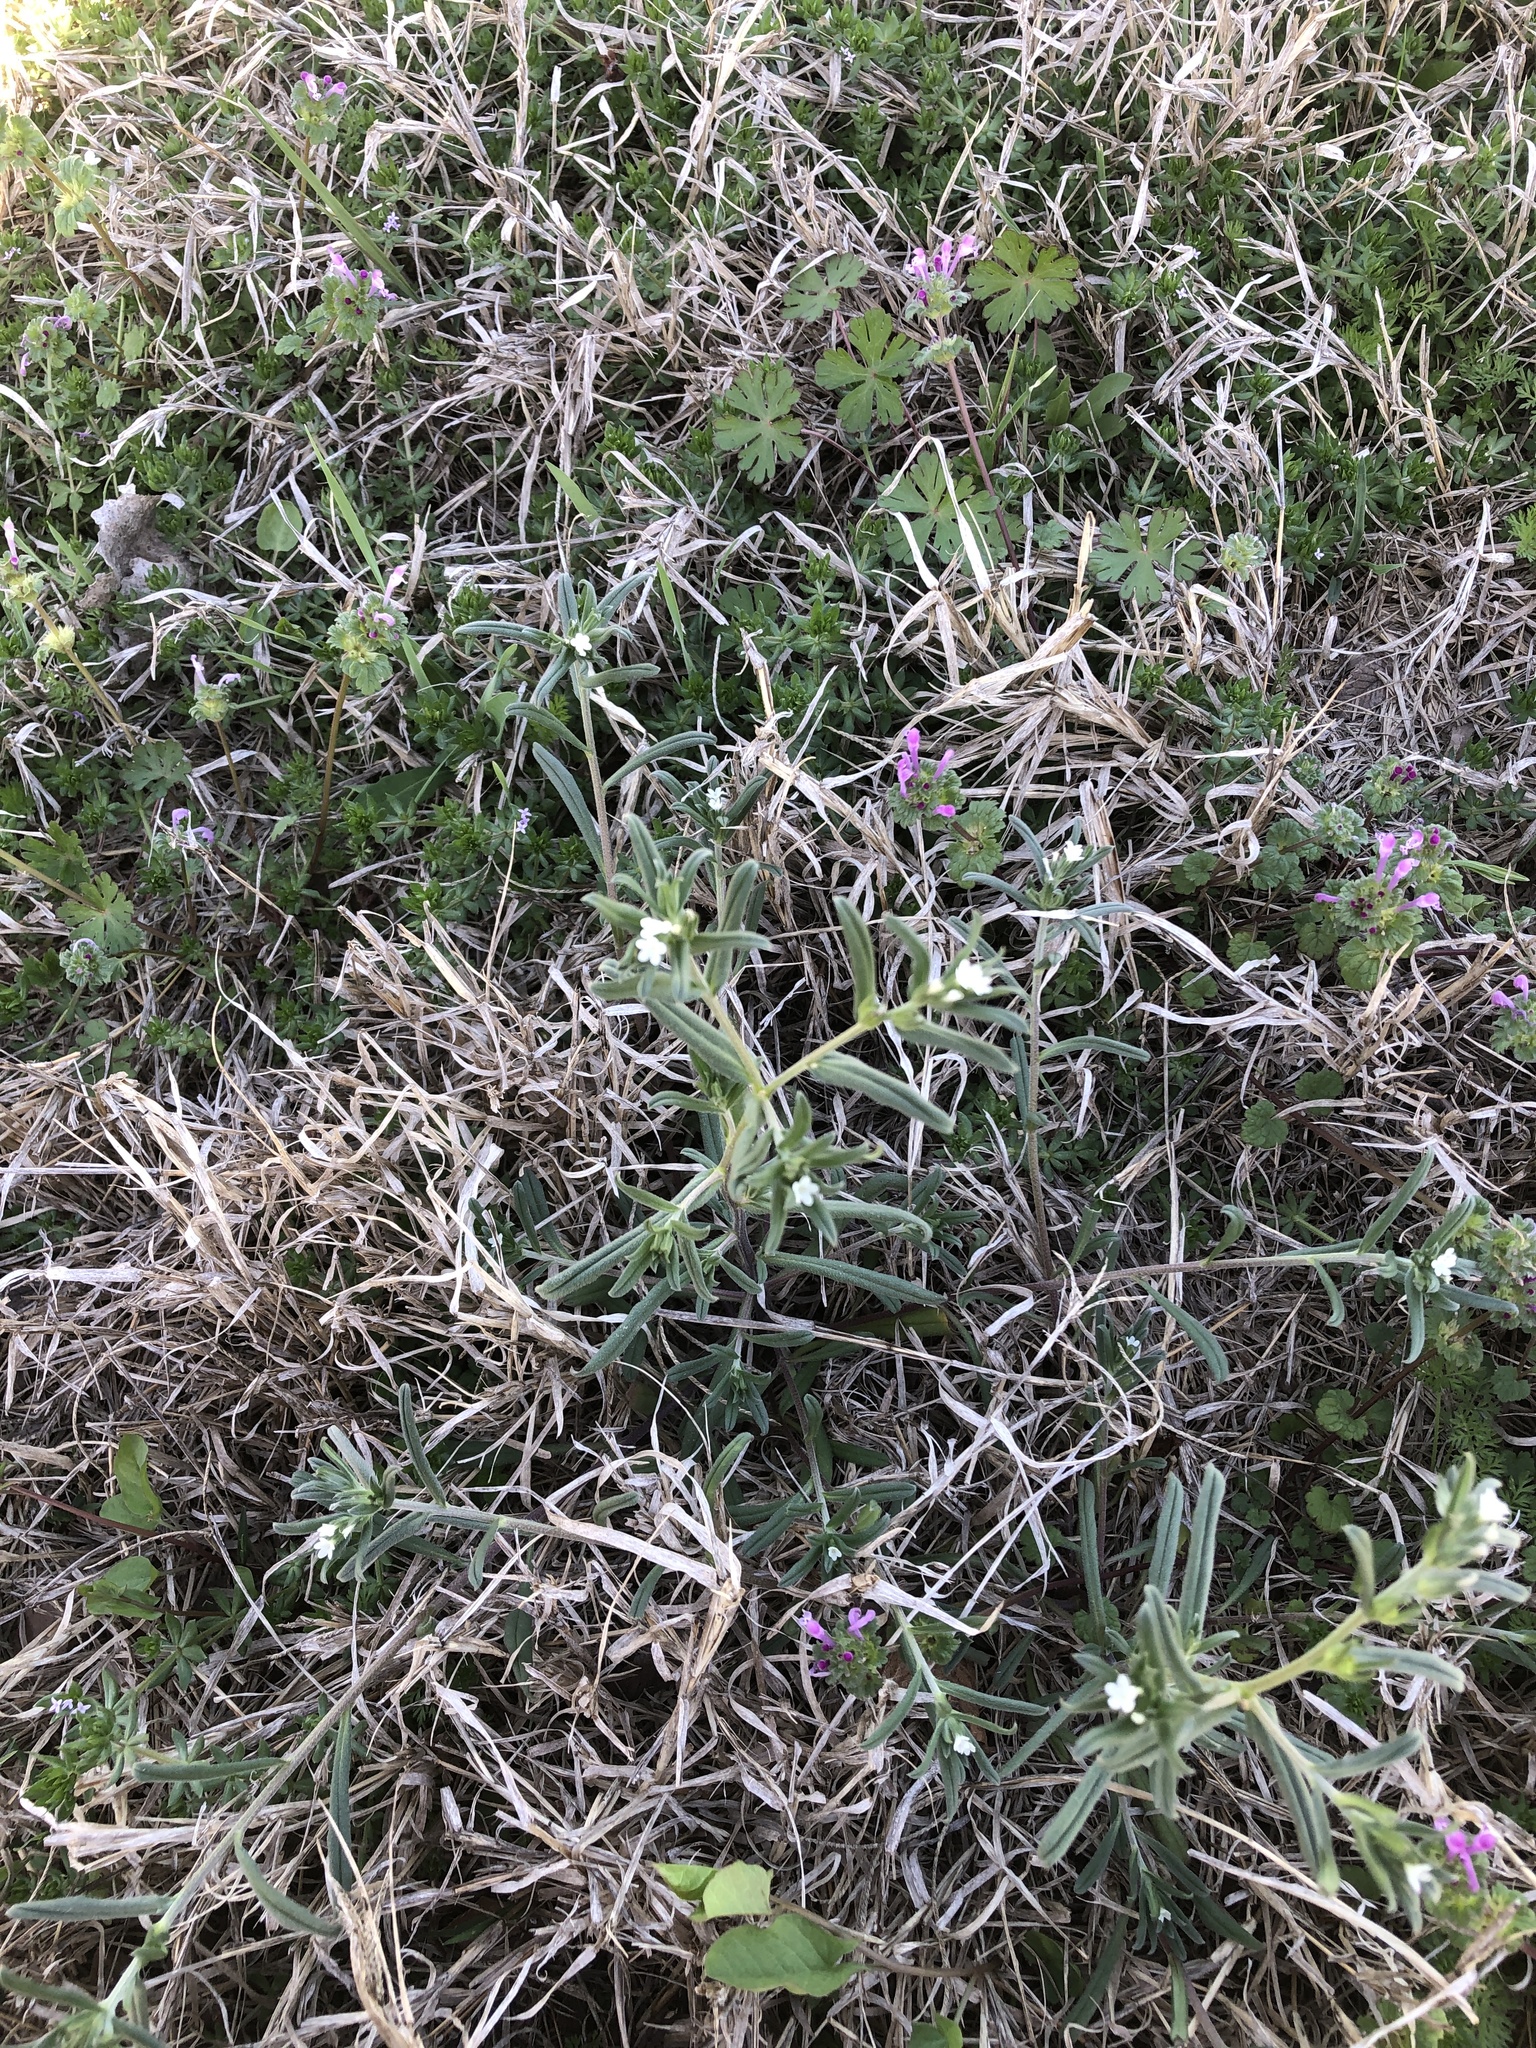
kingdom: Plantae
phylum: Tracheophyta
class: Magnoliopsida
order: Boraginales
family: Boraginaceae
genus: Buglossoides
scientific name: Buglossoides arvensis
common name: Corn gromwell
